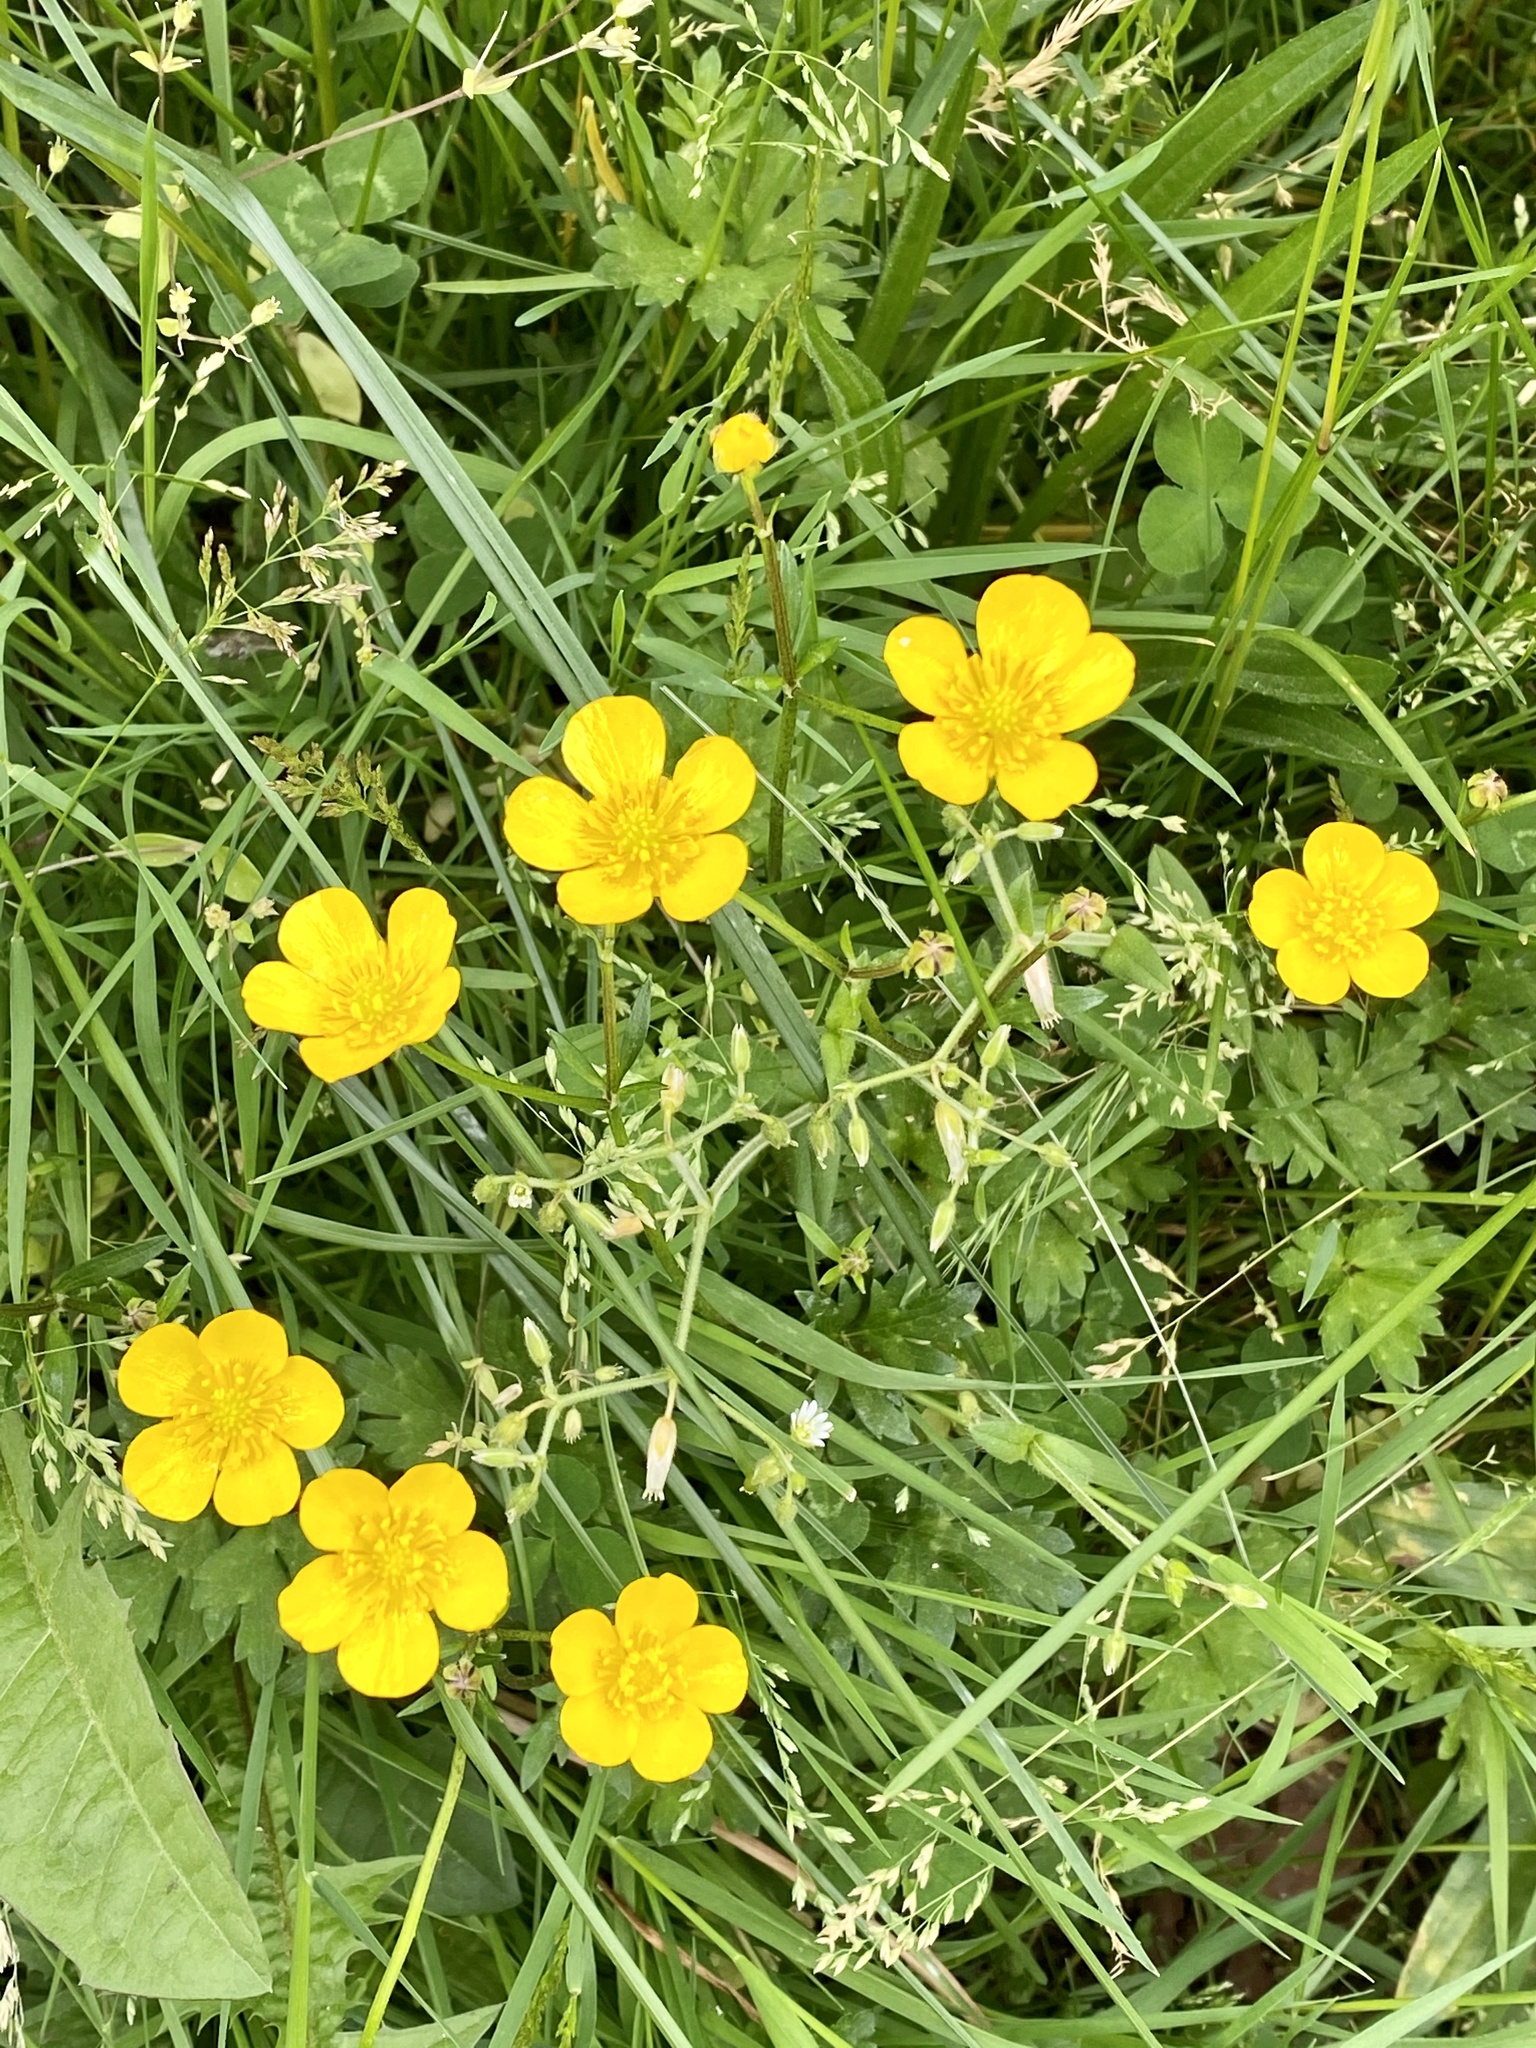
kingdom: Plantae
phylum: Tracheophyta
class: Magnoliopsida
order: Ranunculales
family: Ranunculaceae
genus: Ranunculus
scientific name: Ranunculus repens
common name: Creeping buttercup
